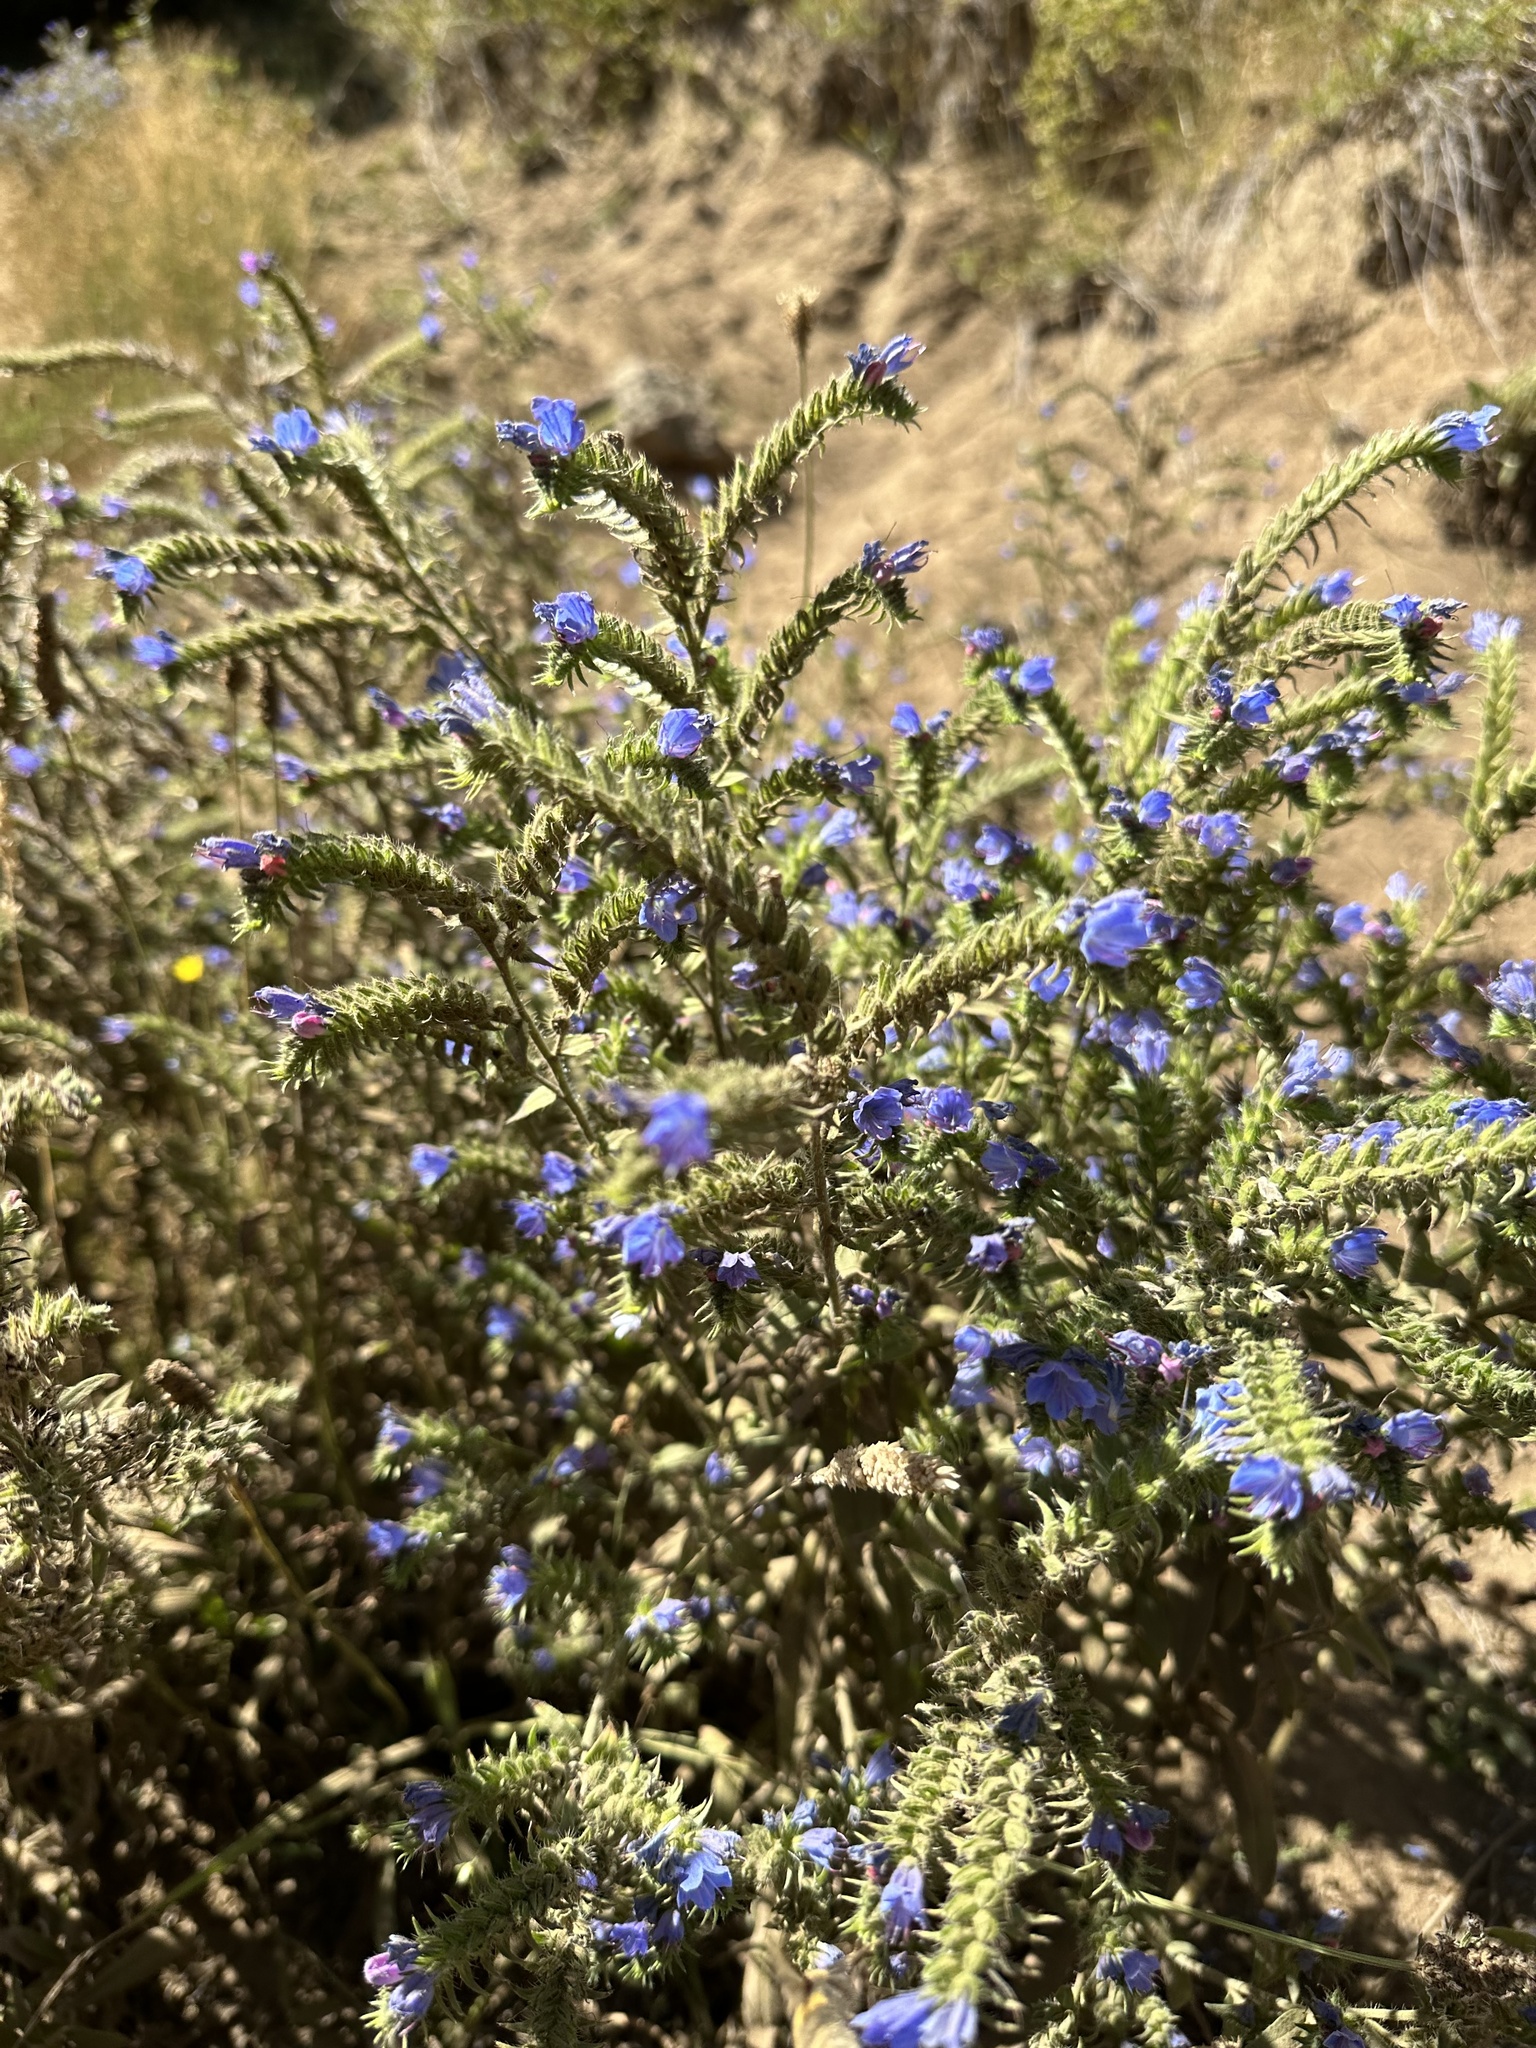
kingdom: Plantae
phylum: Tracheophyta
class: Magnoliopsida
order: Boraginales
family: Boraginaceae
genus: Echium
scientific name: Echium vulgare
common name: Common viper's bugloss
